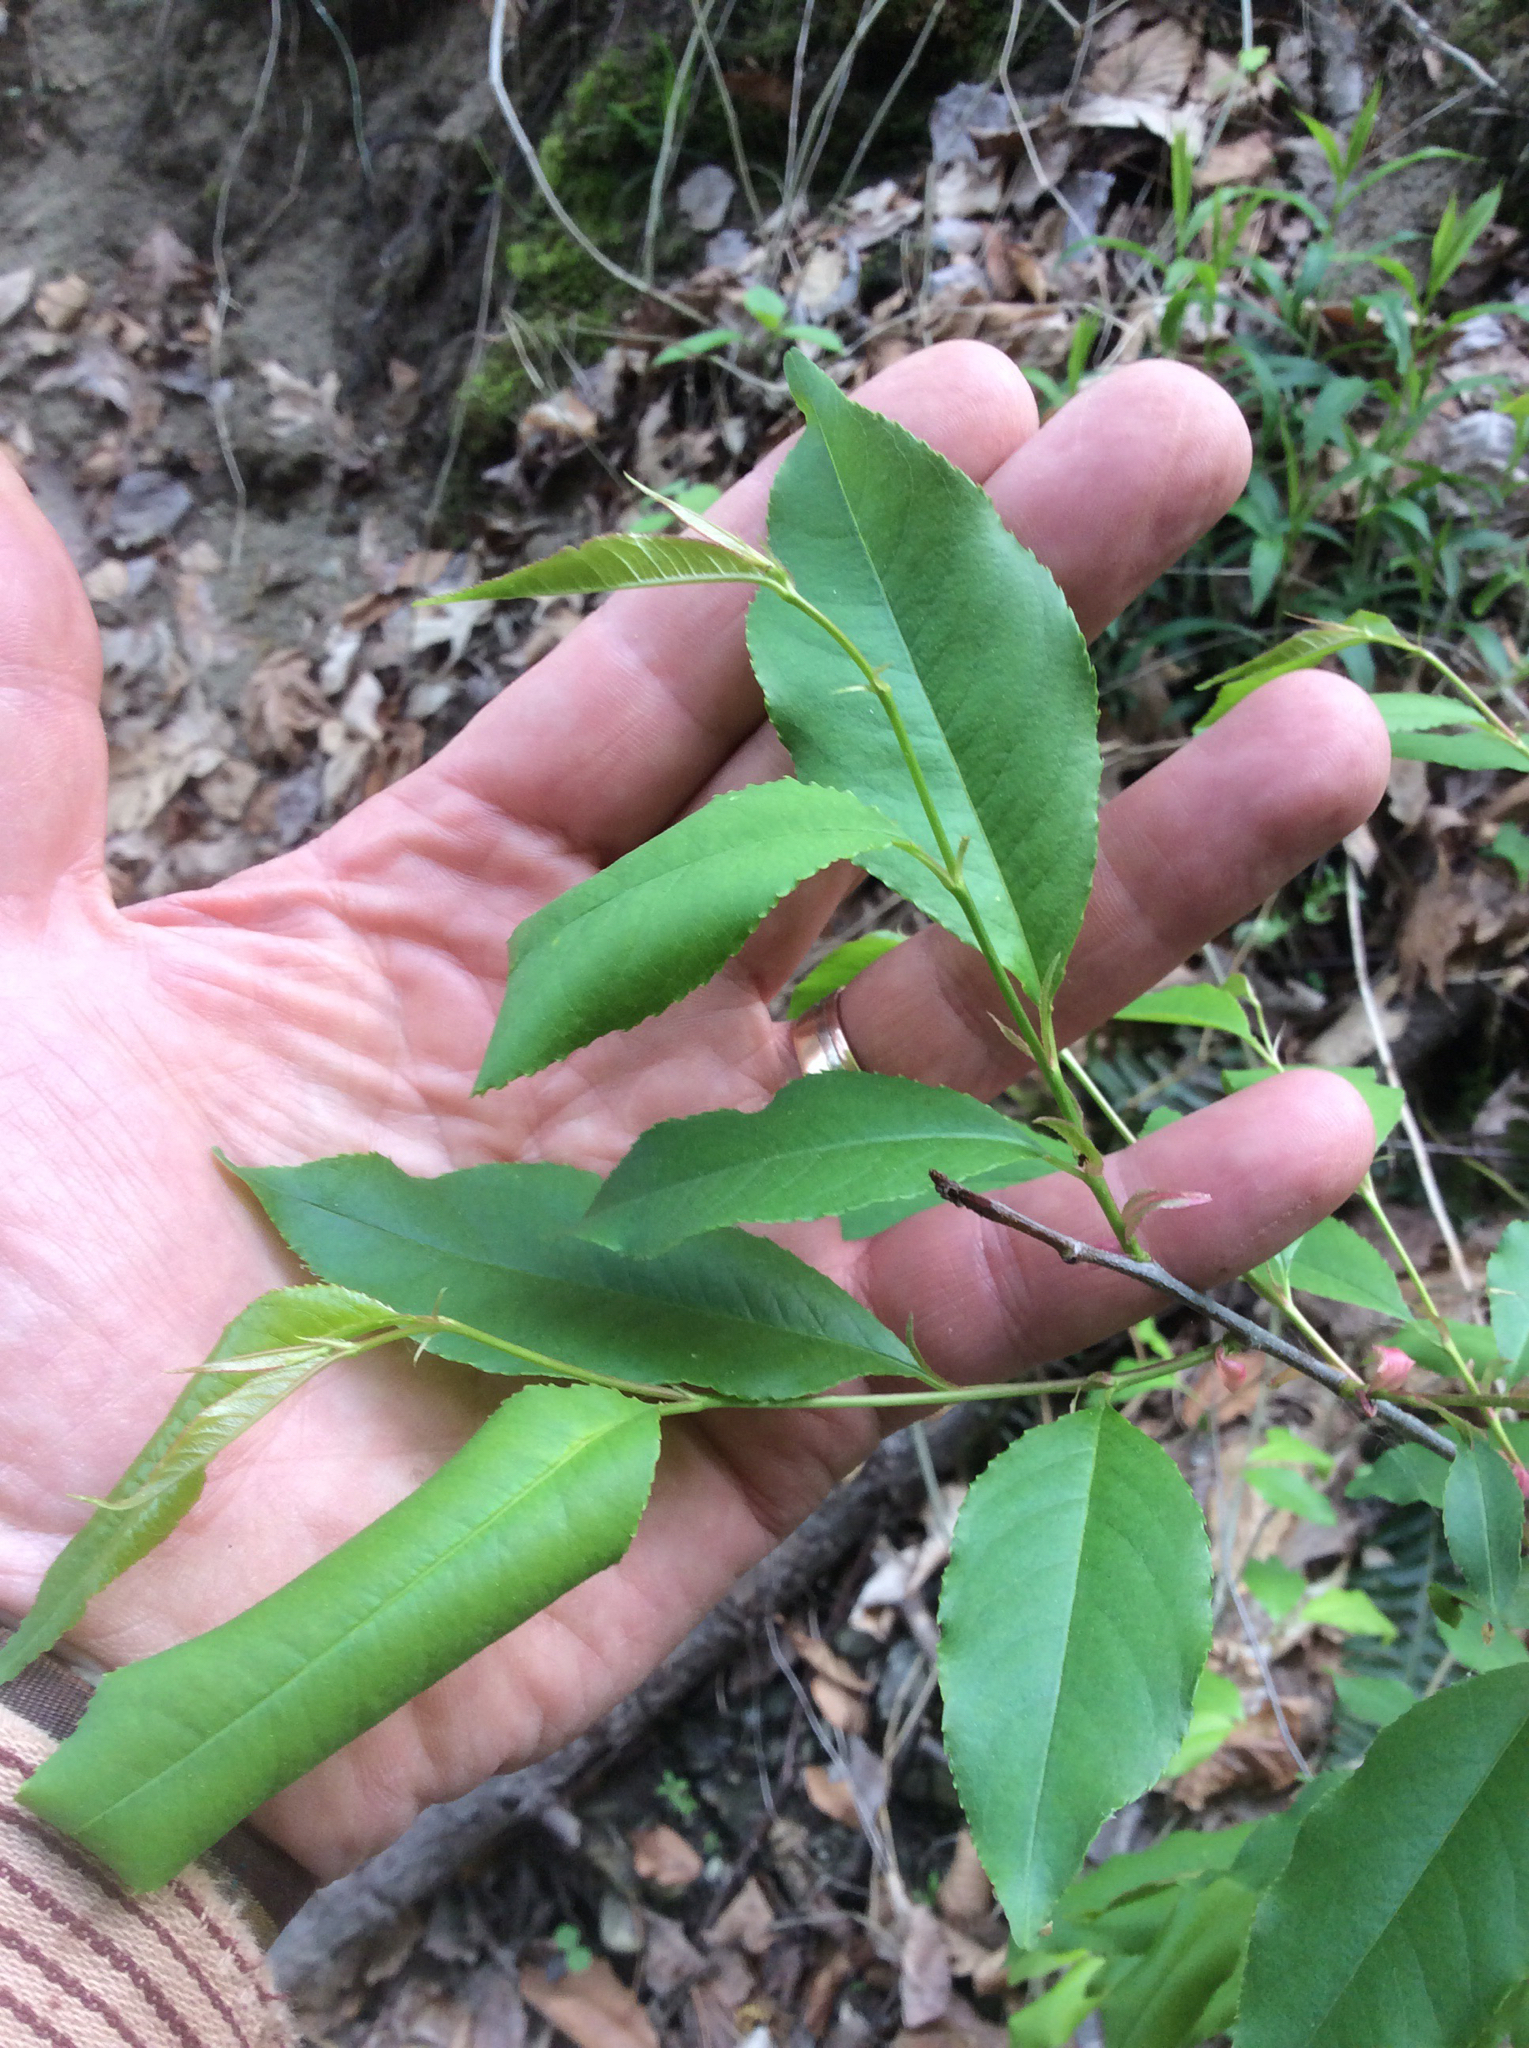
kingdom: Plantae
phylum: Tracheophyta
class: Magnoliopsida
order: Rosales
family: Rosaceae
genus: Prunus
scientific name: Prunus serotina
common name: Black cherry
